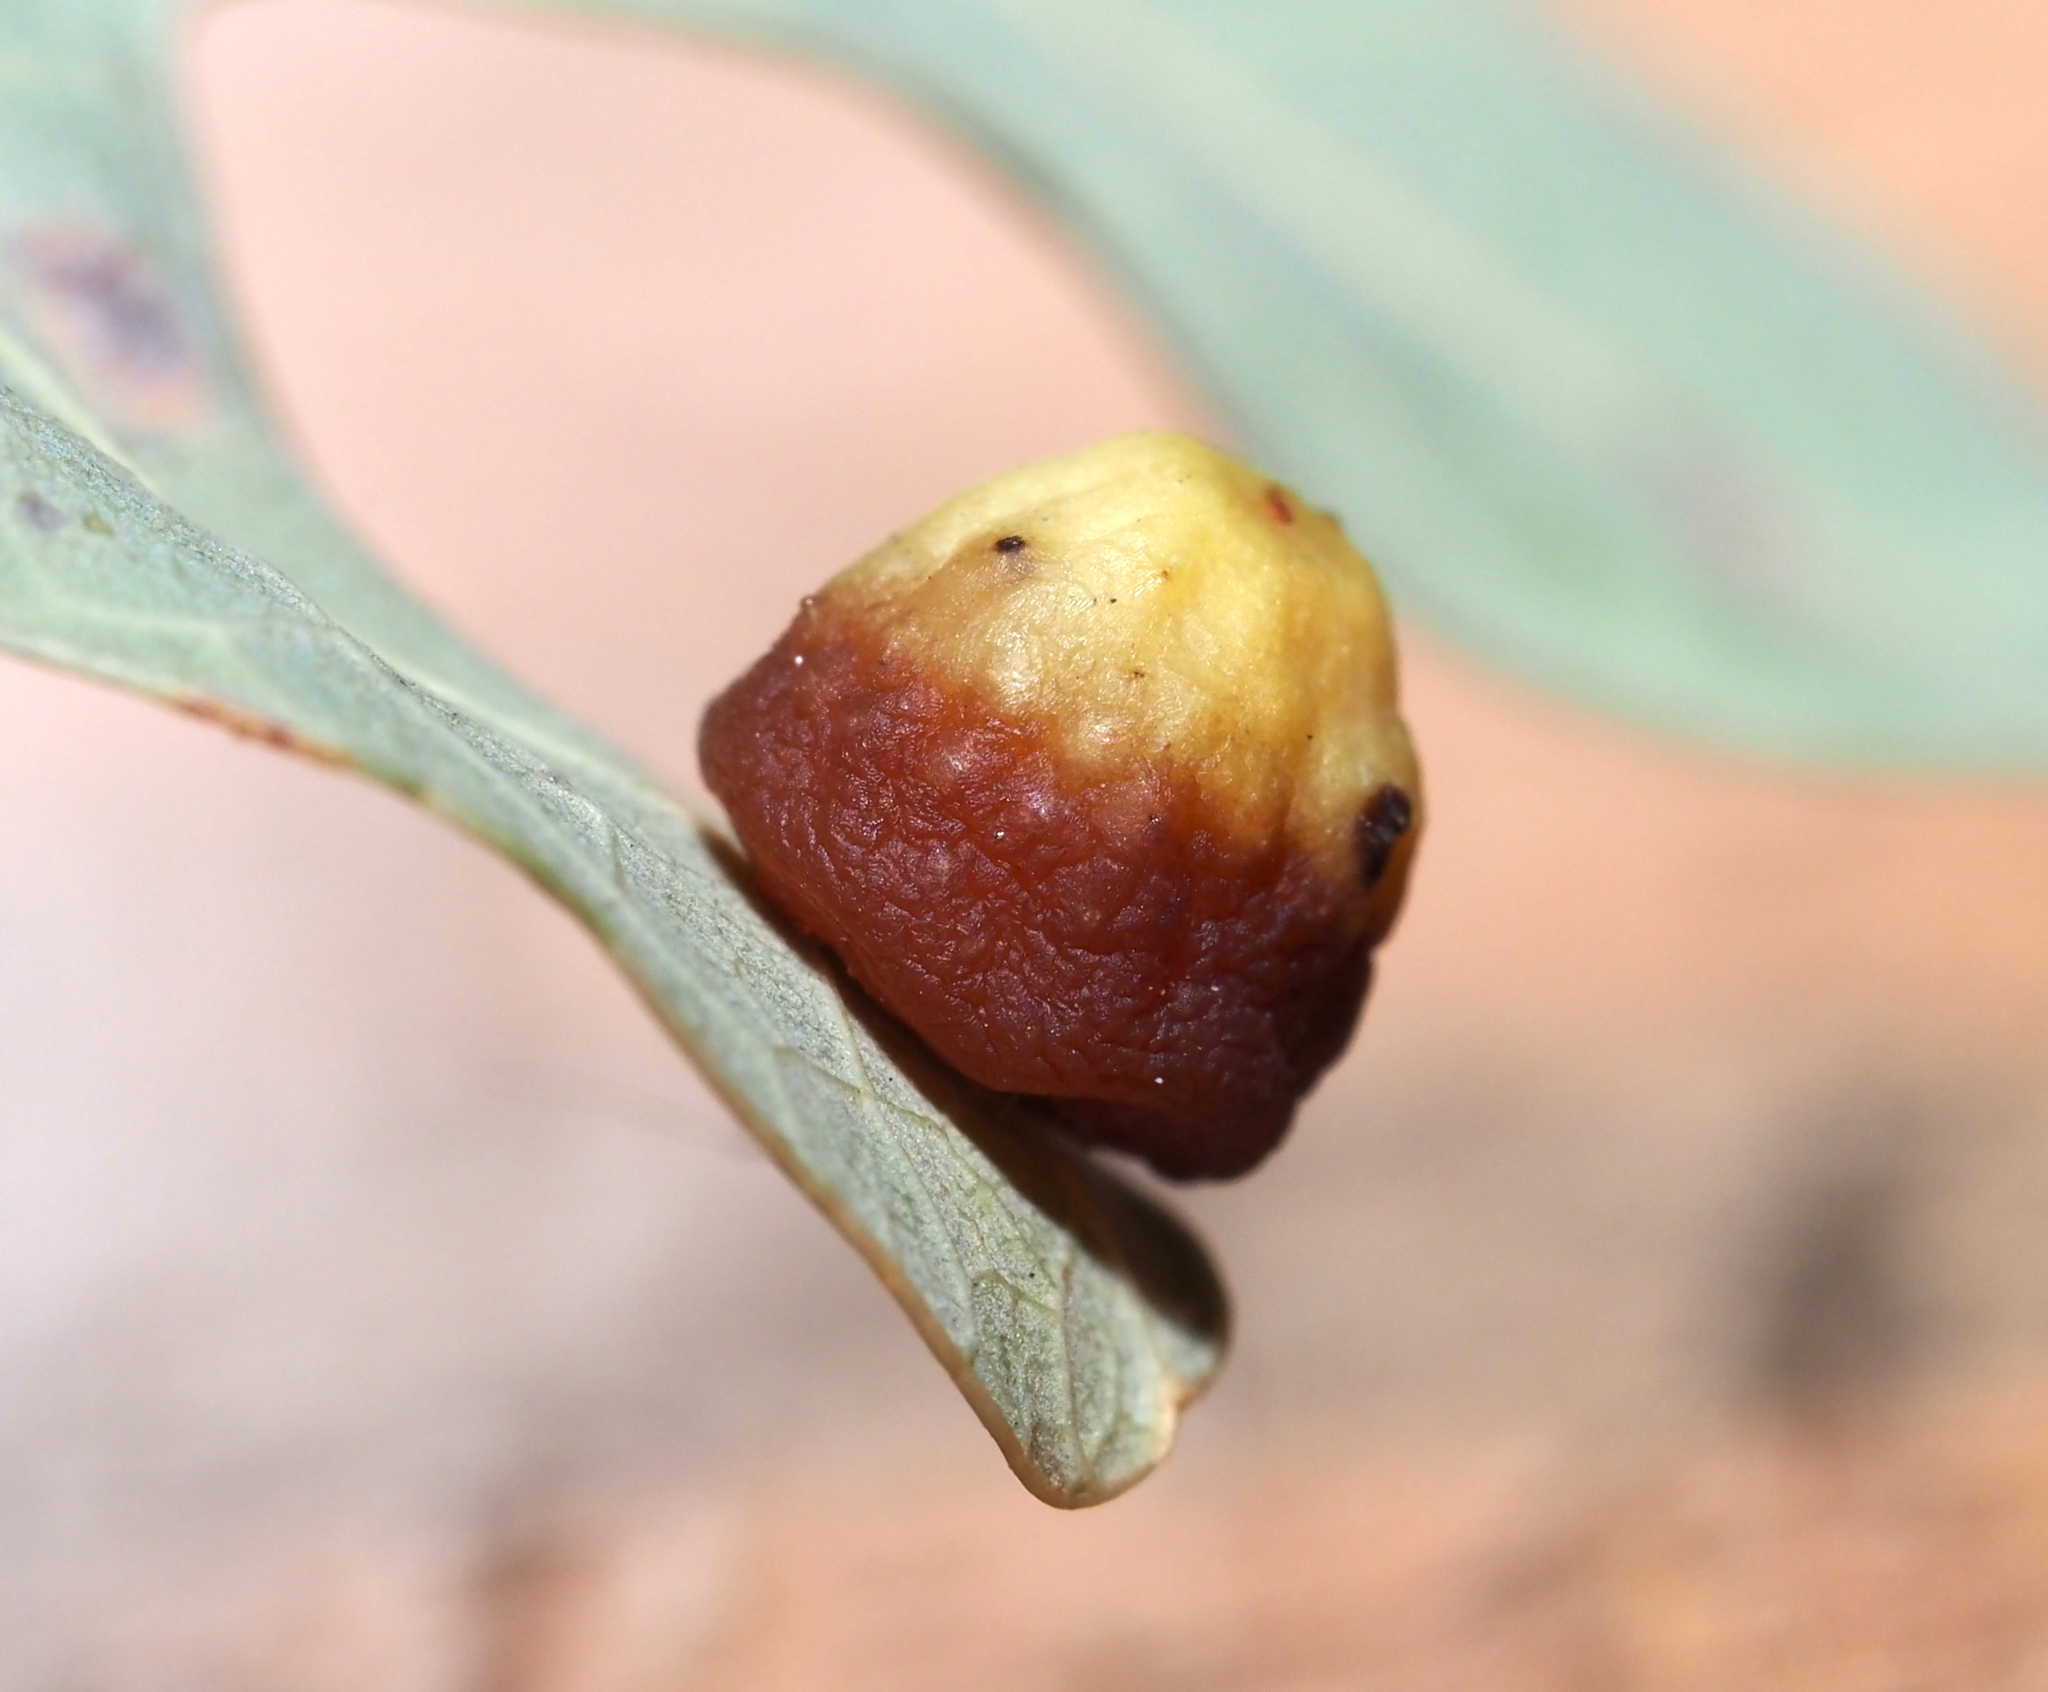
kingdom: Animalia
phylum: Arthropoda
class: Insecta
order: Hymenoptera
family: Cynipidae
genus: Andricus
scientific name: Andricus
